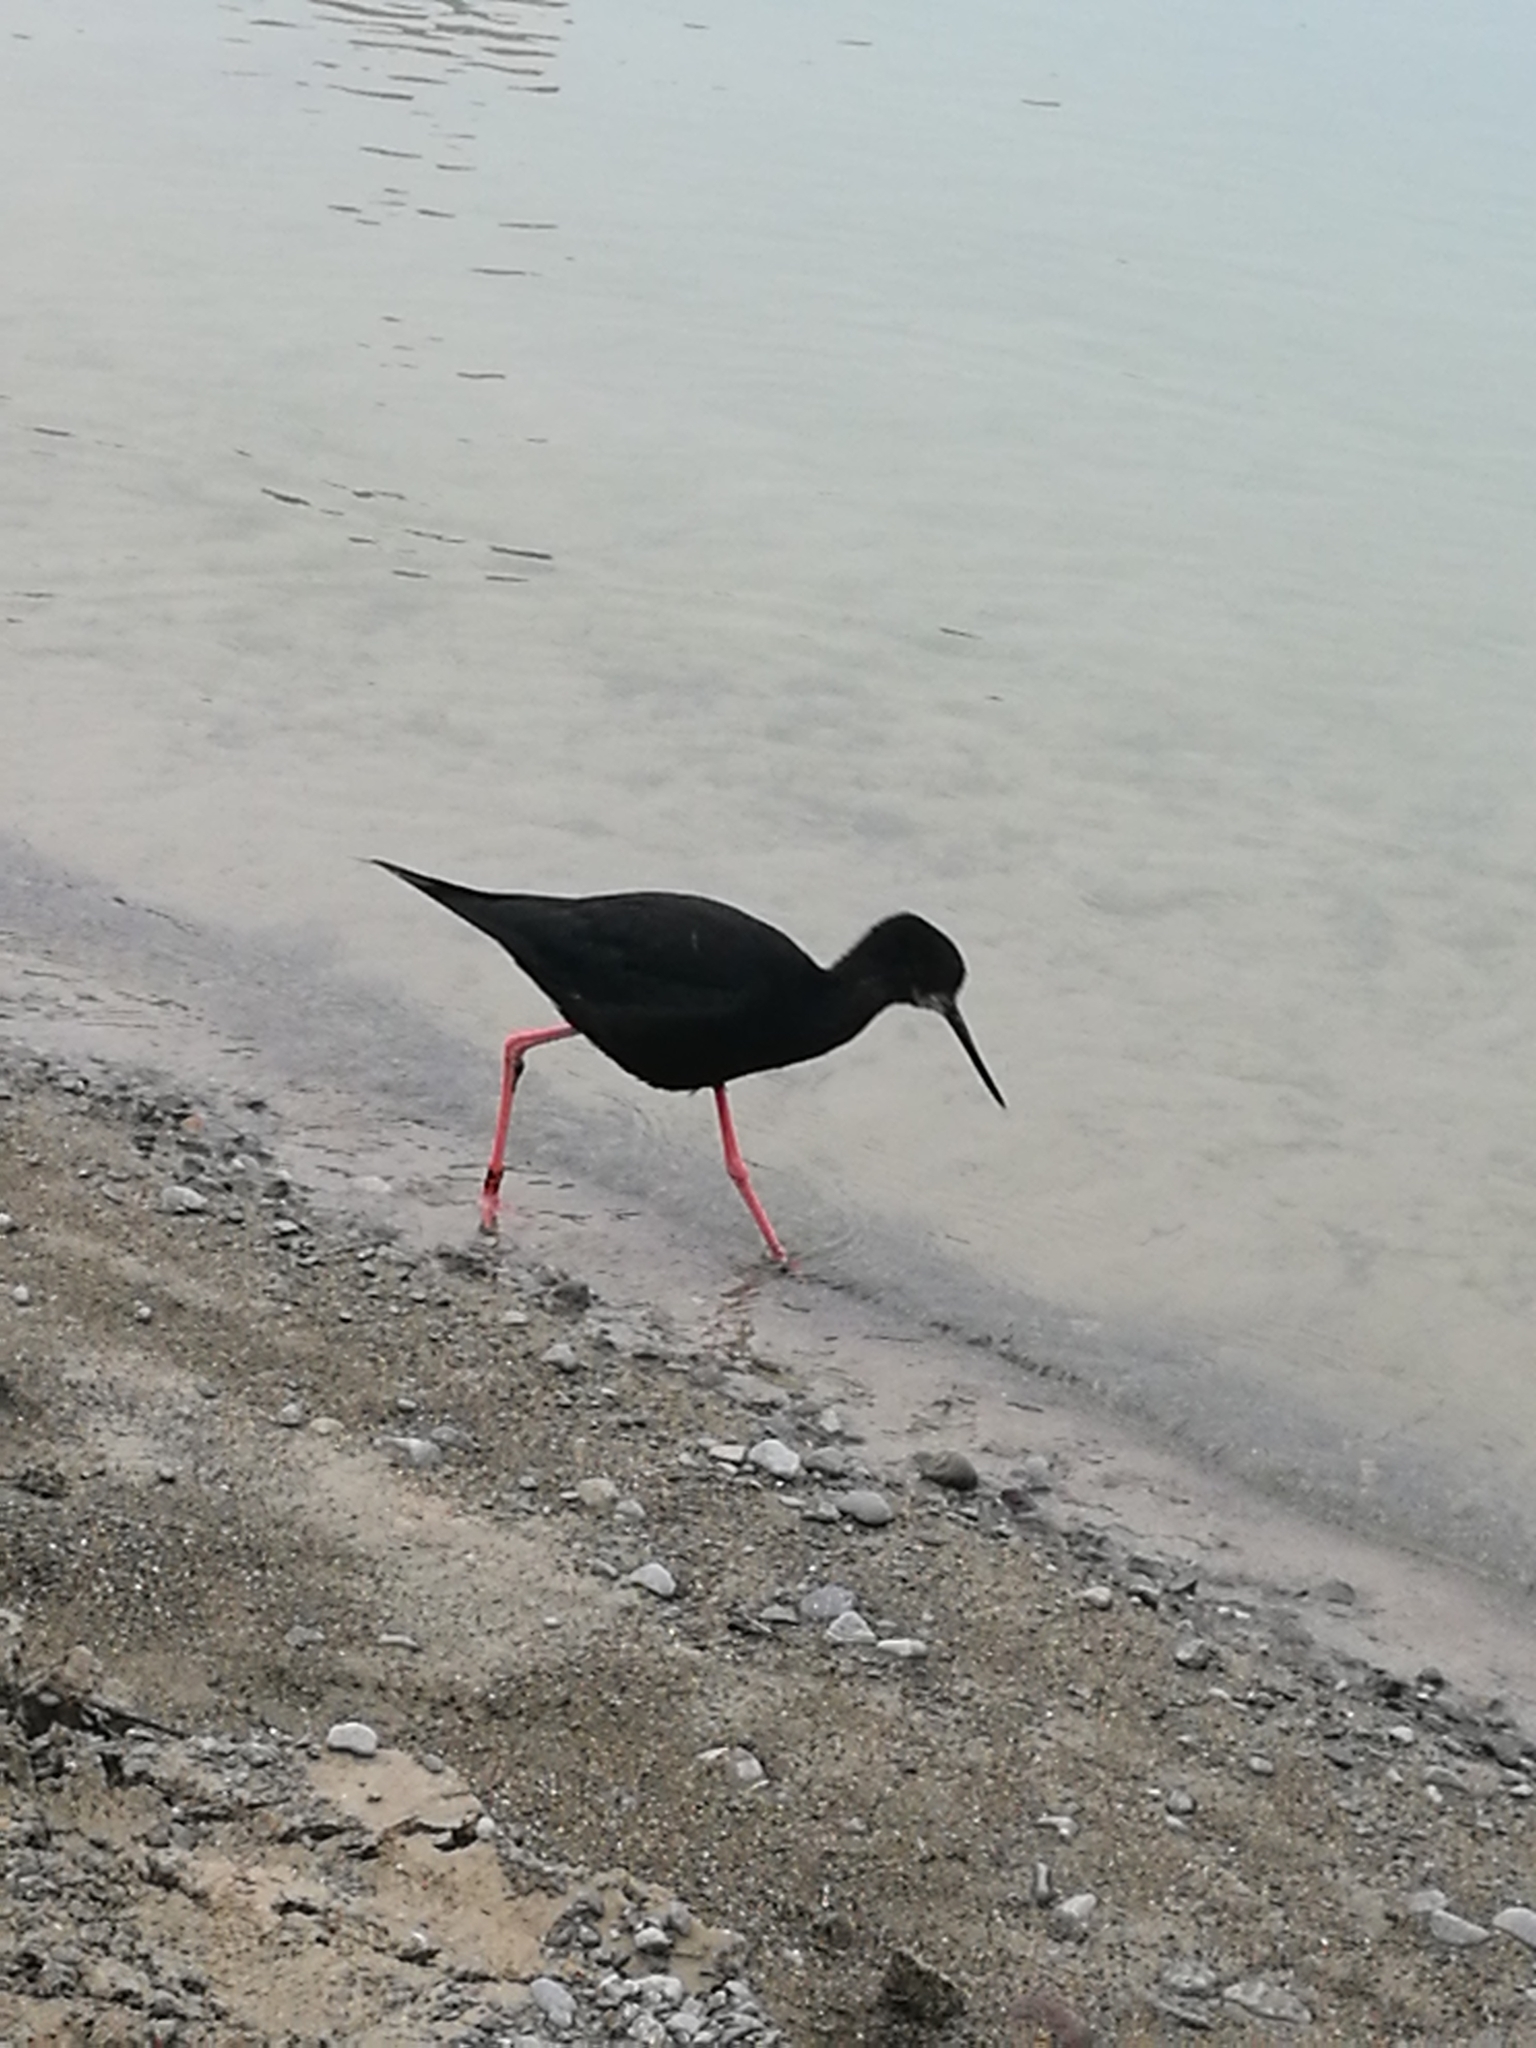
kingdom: Animalia
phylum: Chordata
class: Aves
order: Charadriiformes
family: Recurvirostridae
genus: Himantopus
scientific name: Himantopus novaezelandiae
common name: Black stilt
